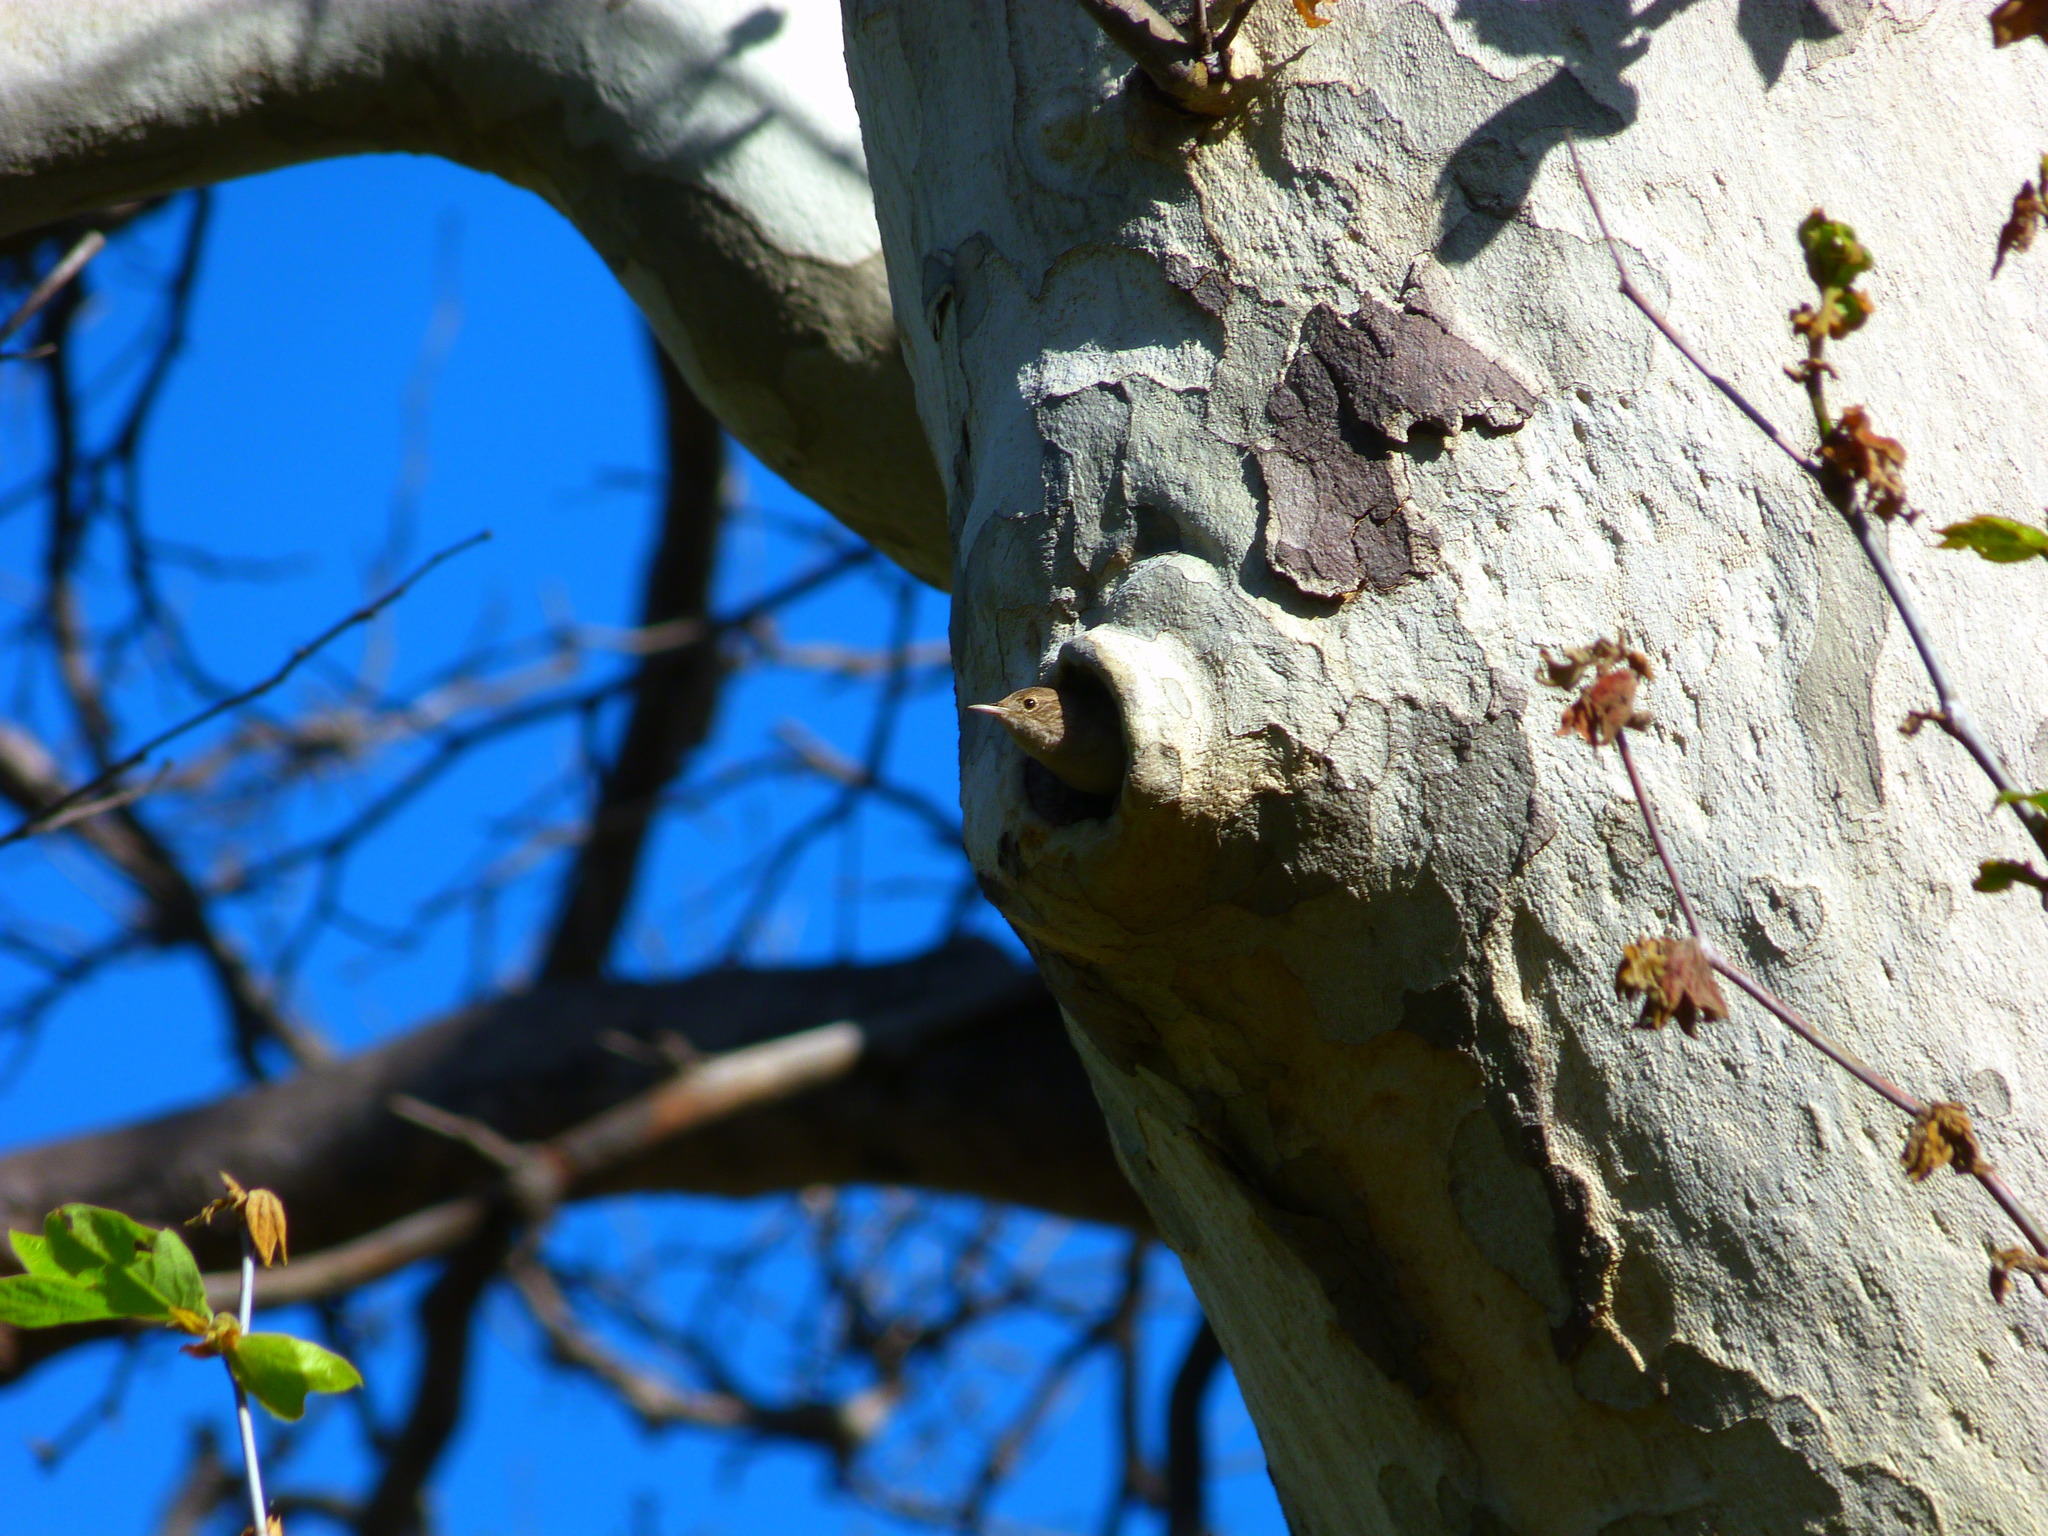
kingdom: Animalia
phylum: Chordata
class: Aves
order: Passeriformes
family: Troglodytidae
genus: Troglodytes
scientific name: Troglodytes aedon
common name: House wren
